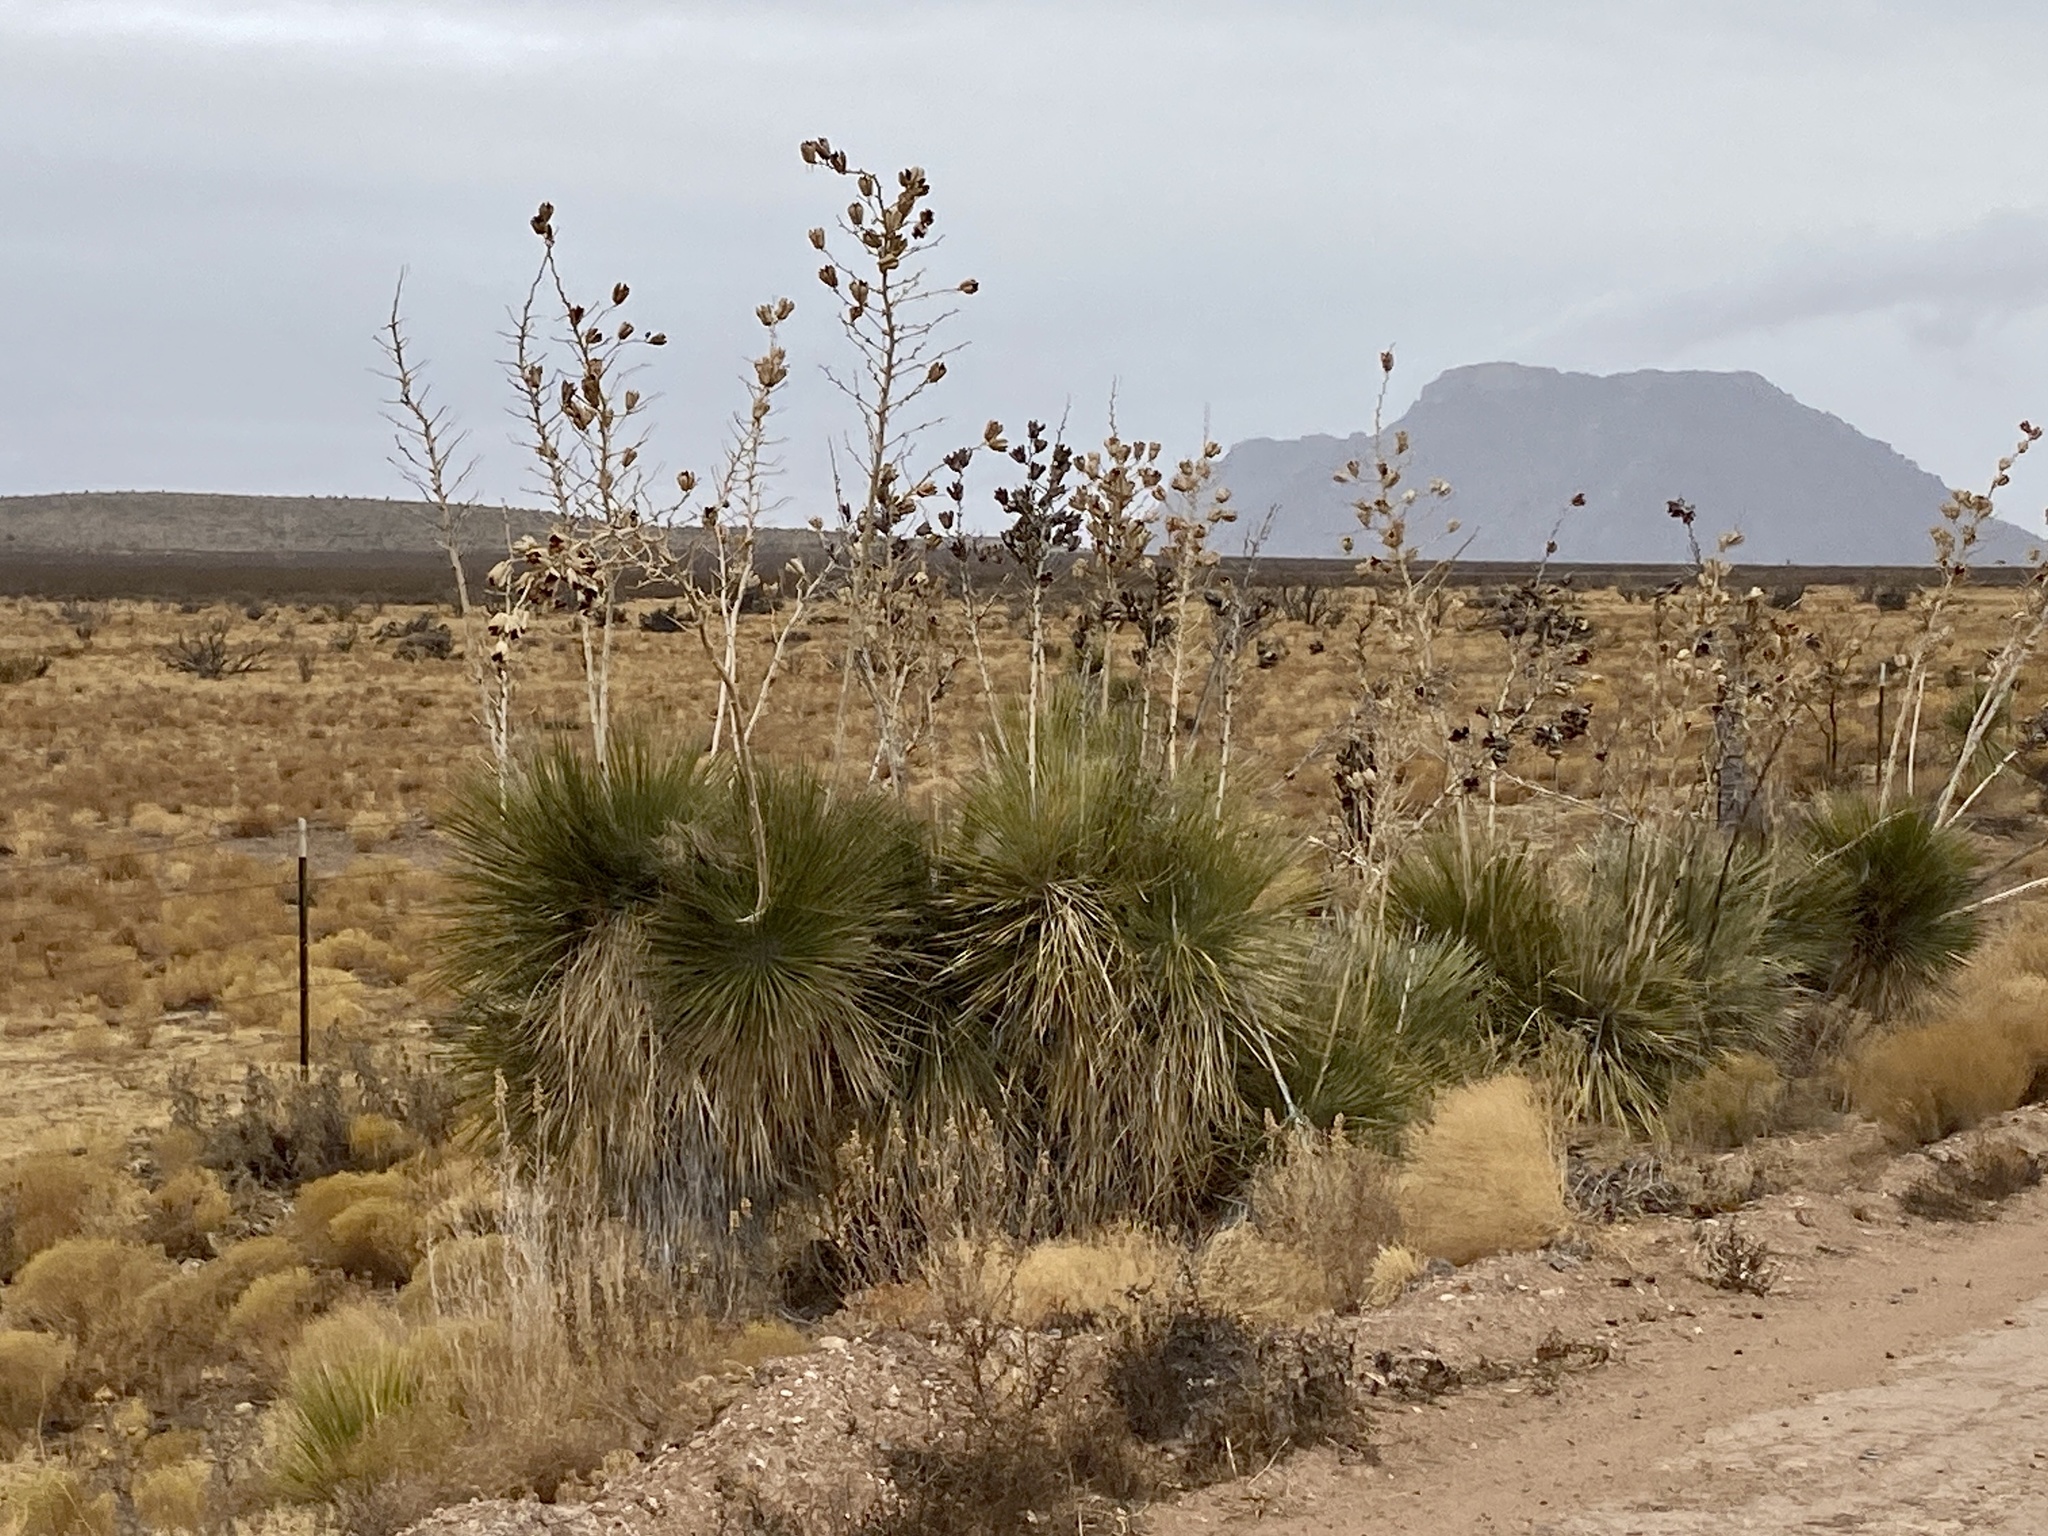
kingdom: Plantae
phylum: Tracheophyta
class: Liliopsida
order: Asparagales
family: Asparagaceae
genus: Yucca
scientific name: Yucca elata
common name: Palmella
